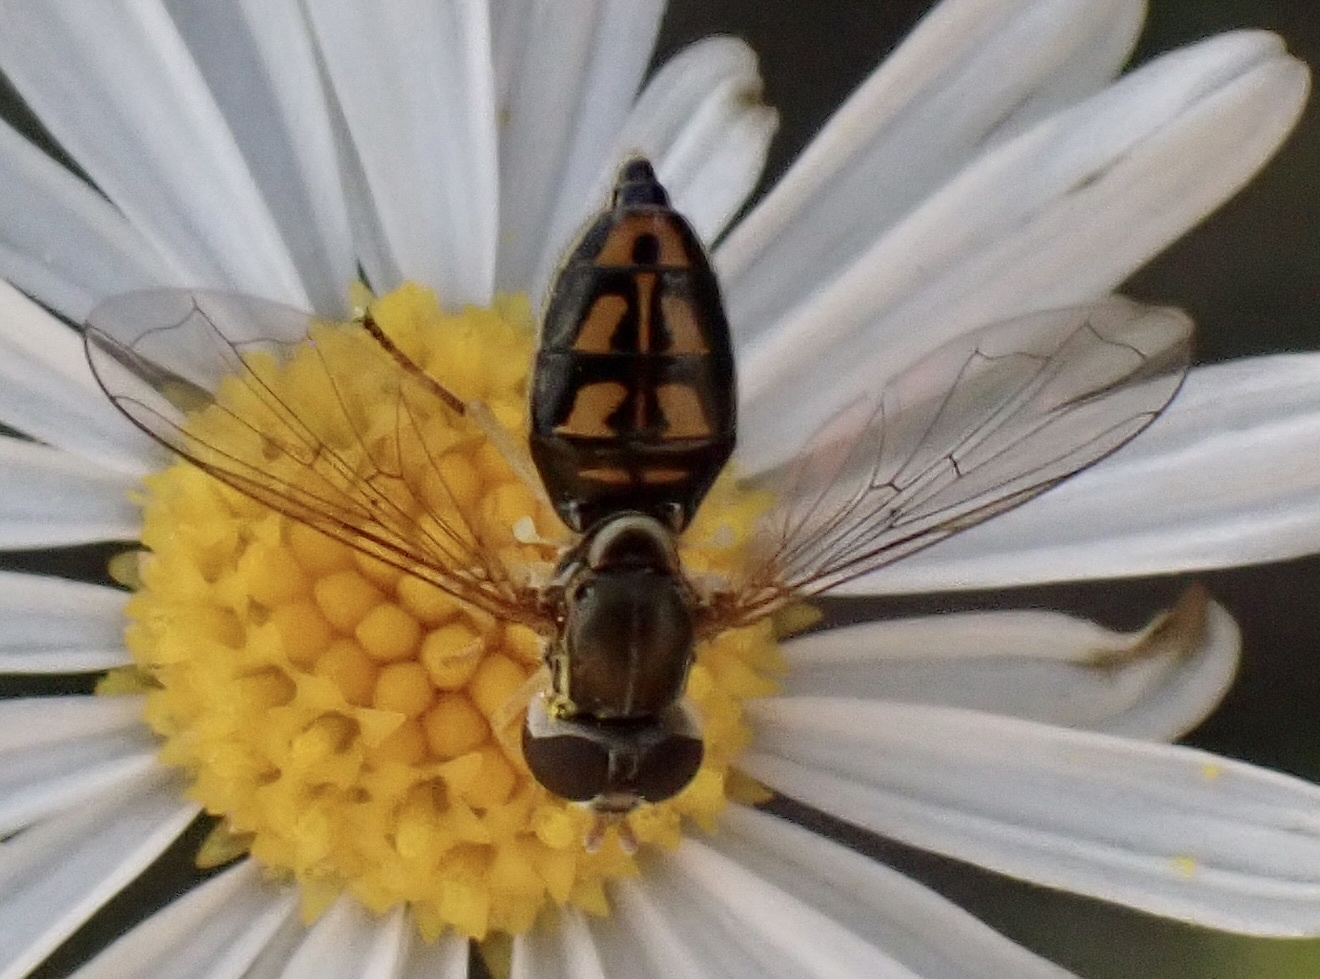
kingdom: Animalia
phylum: Arthropoda
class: Insecta
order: Diptera
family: Syrphidae
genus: Toxomerus
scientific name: Toxomerus marginatus
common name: Syrphid fly
